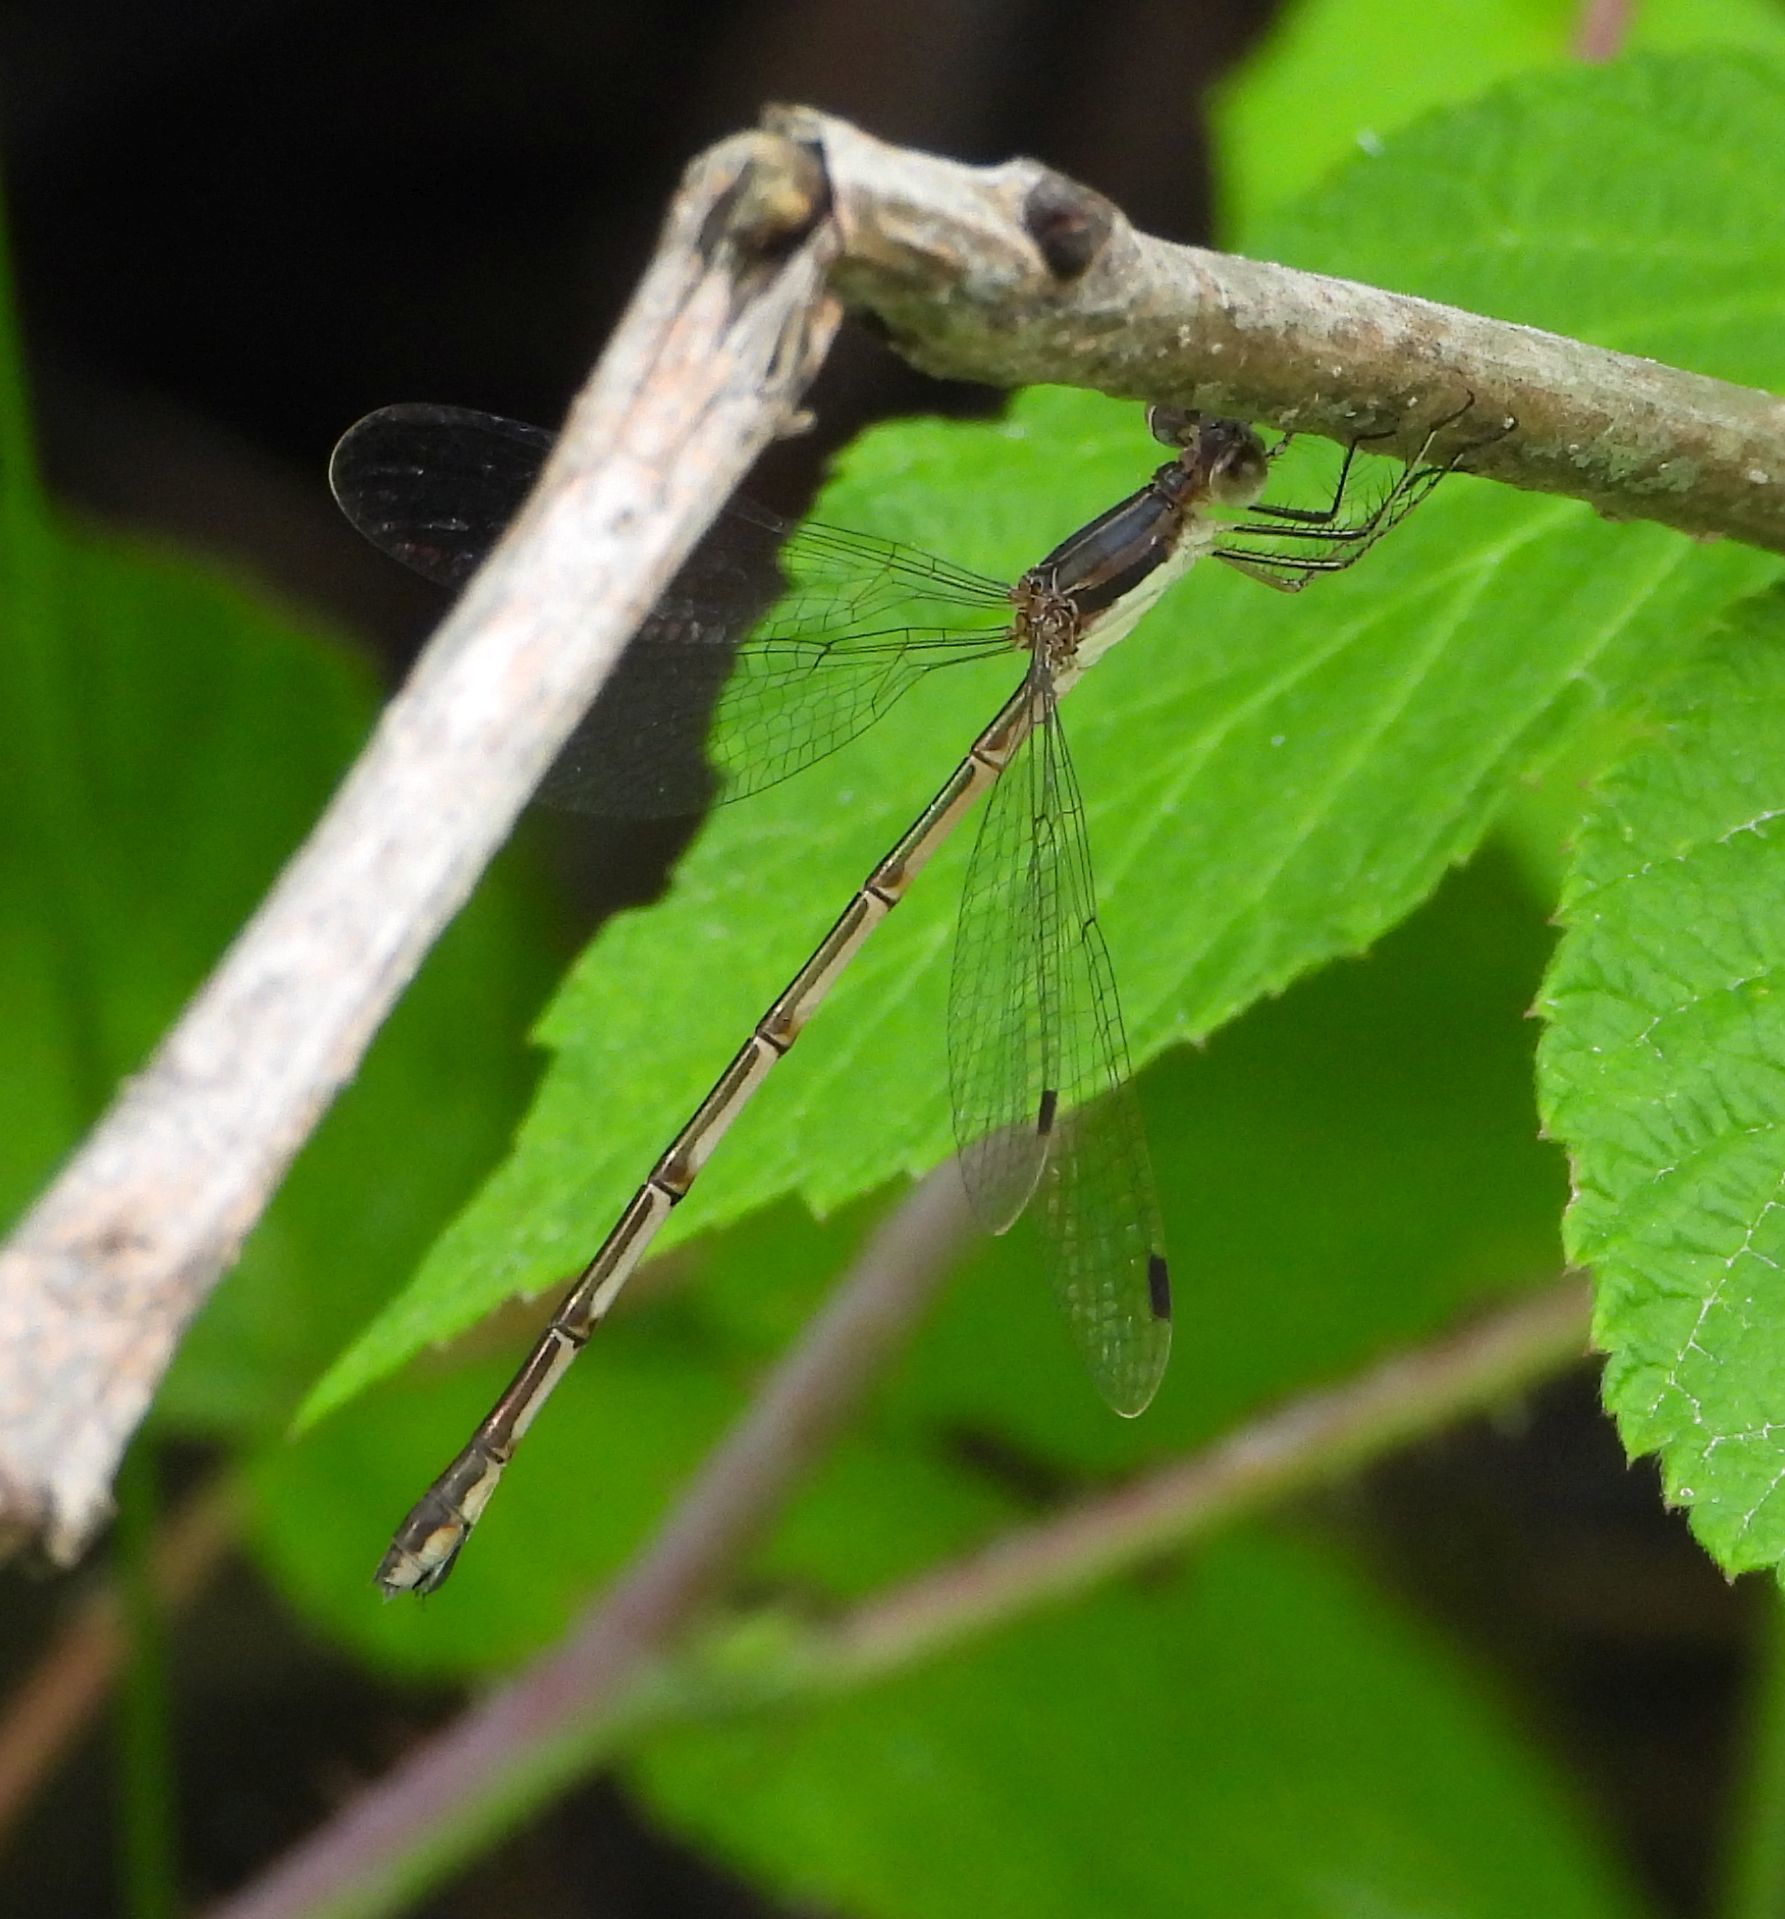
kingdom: Animalia
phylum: Arthropoda
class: Insecta
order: Odonata
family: Lestidae
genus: Lestes
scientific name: Lestes rectangularis
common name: Slender spreadwing
